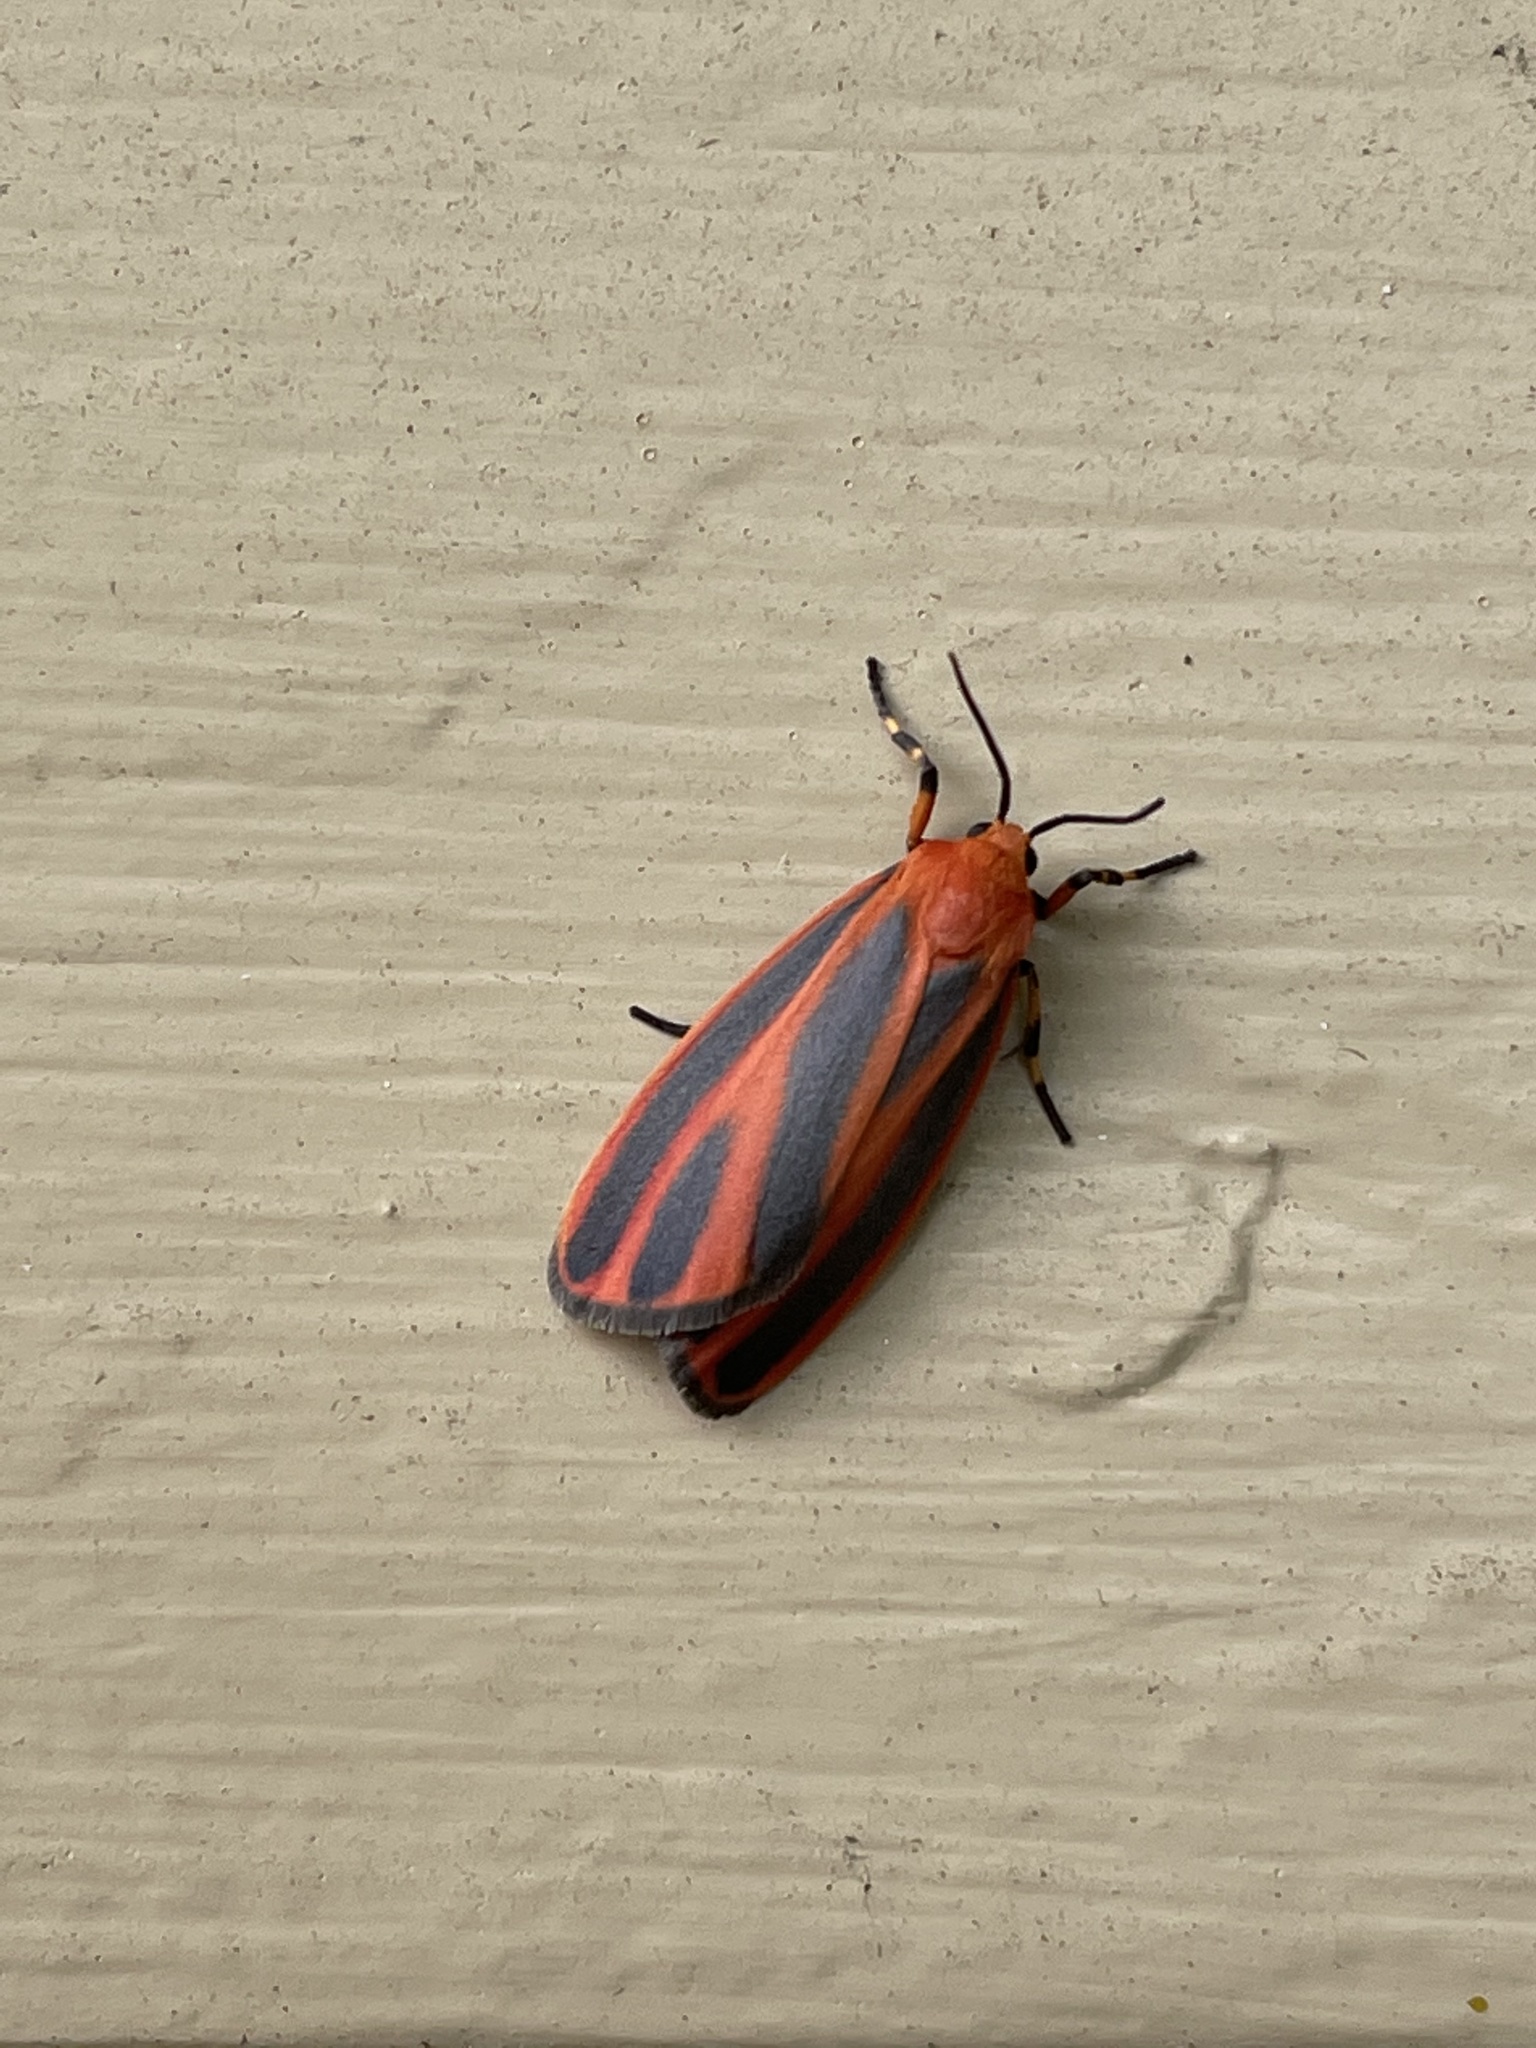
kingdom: Animalia
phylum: Arthropoda
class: Insecta
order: Lepidoptera
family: Erebidae
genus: Hypoprepia
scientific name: Hypoprepia miniata
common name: Scarlet-winged lichen moth
